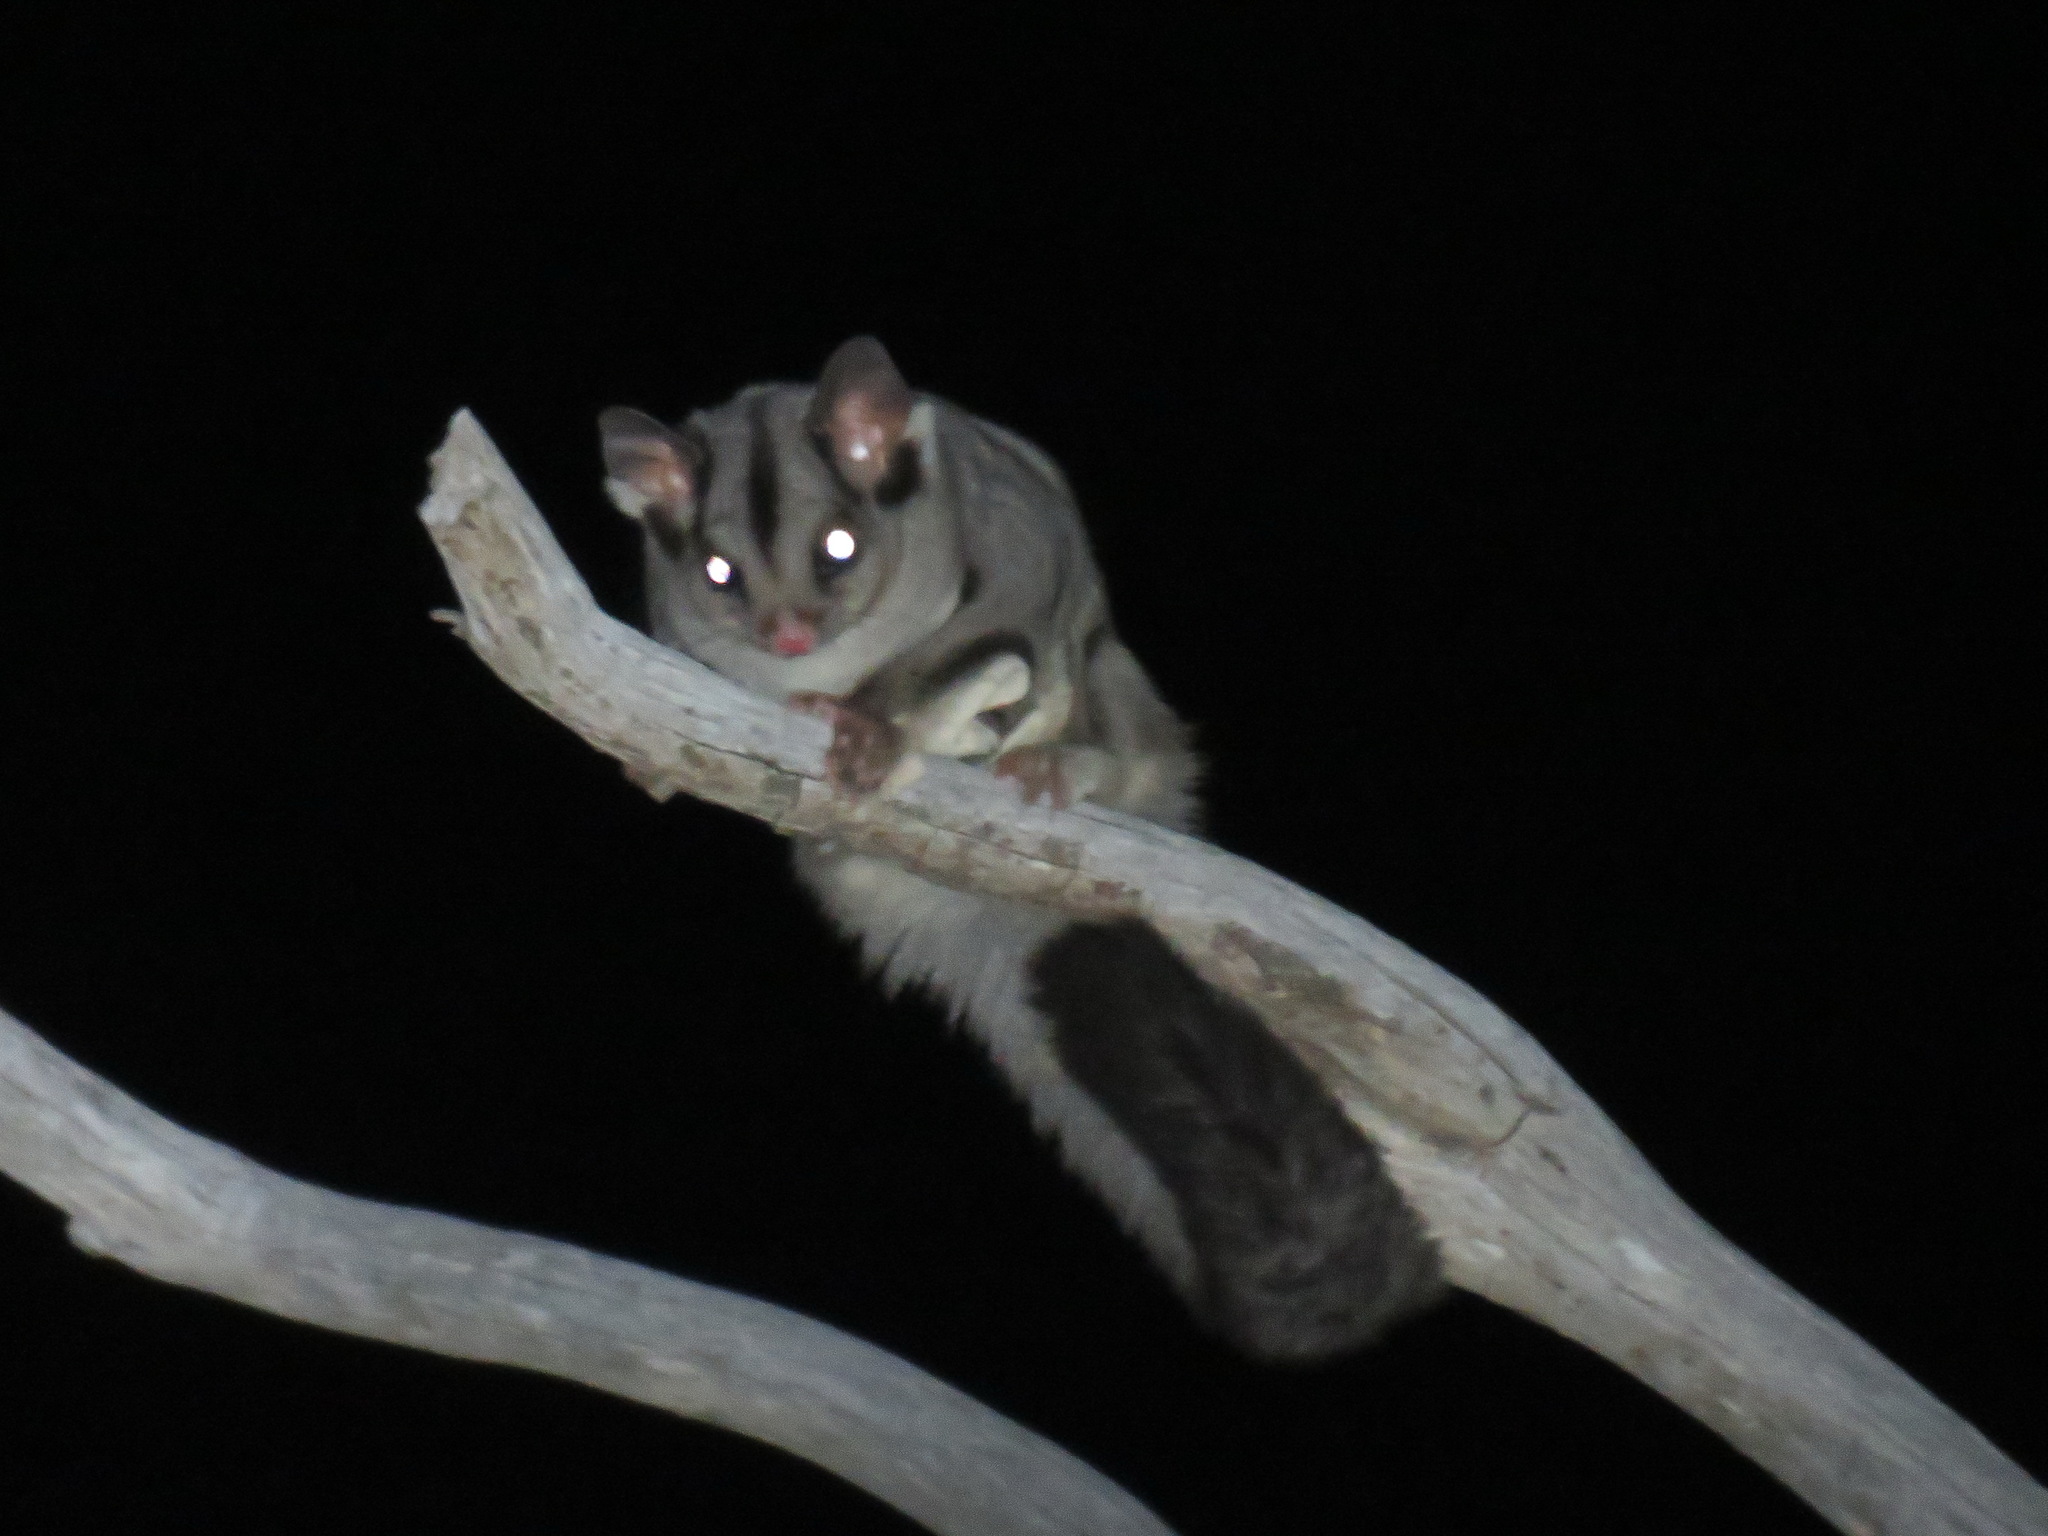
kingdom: Animalia
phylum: Chordata
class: Mammalia
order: Diprotodontia
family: Petauridae
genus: Petaurus
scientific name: Petaurus breviceps
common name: Sugar glider
